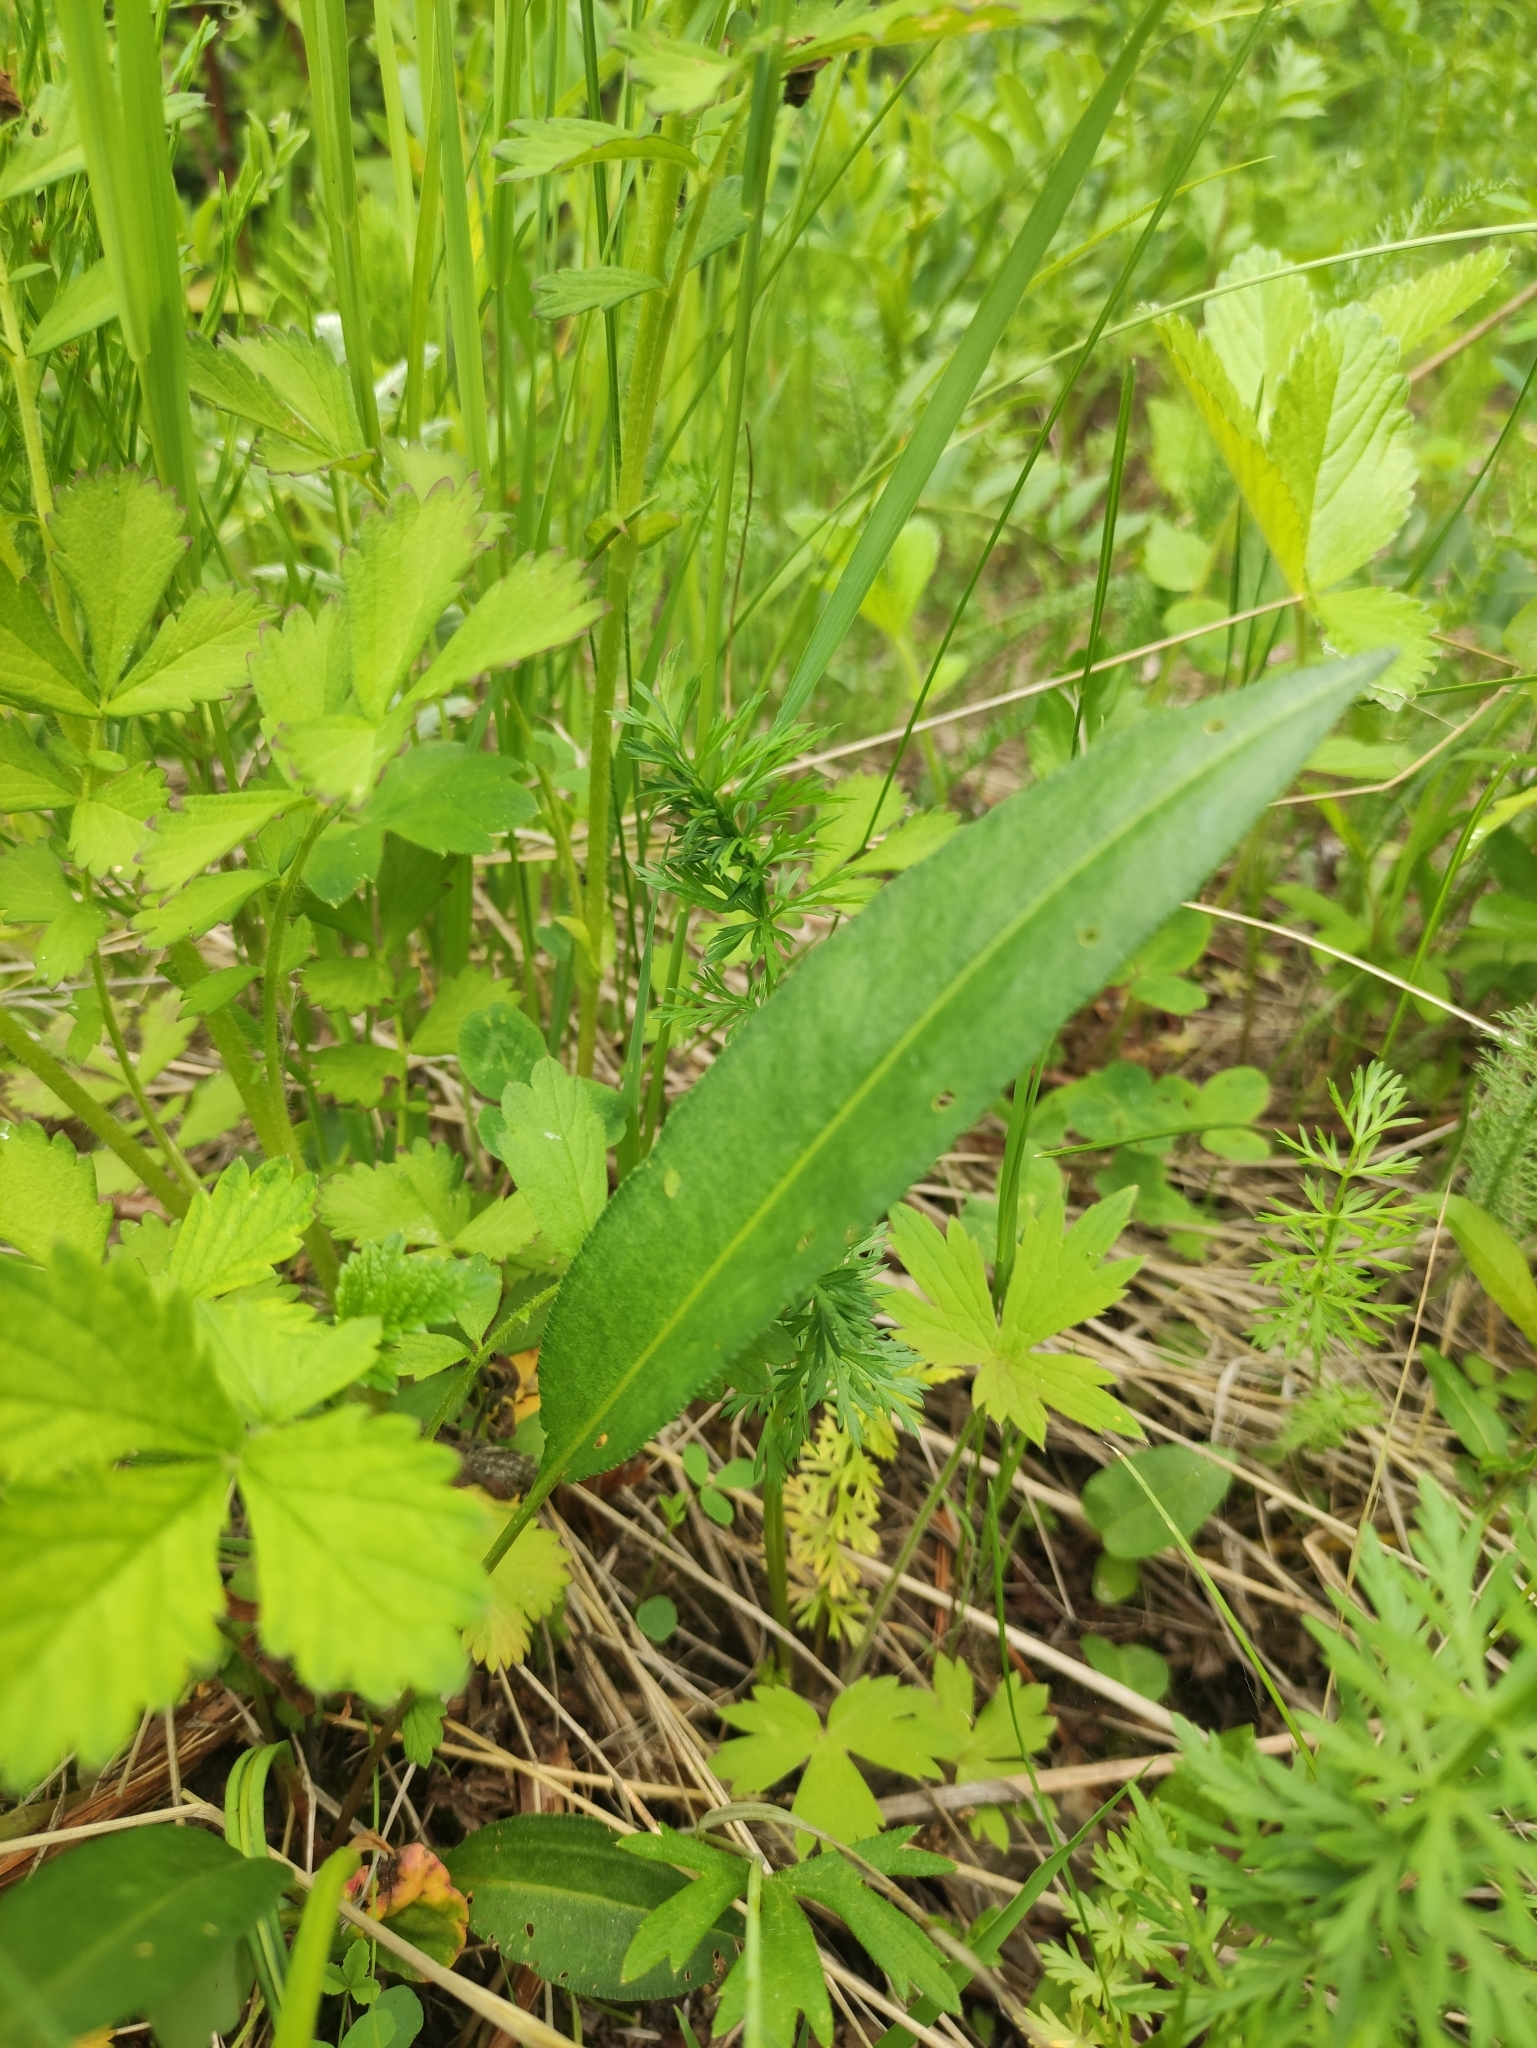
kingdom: Plantae
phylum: Tracheophyta
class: Magnoliopsida
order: Caryophyllales
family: Polygonaceae
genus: Bistorta
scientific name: Bistorta vivipara
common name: Alpine bistort
